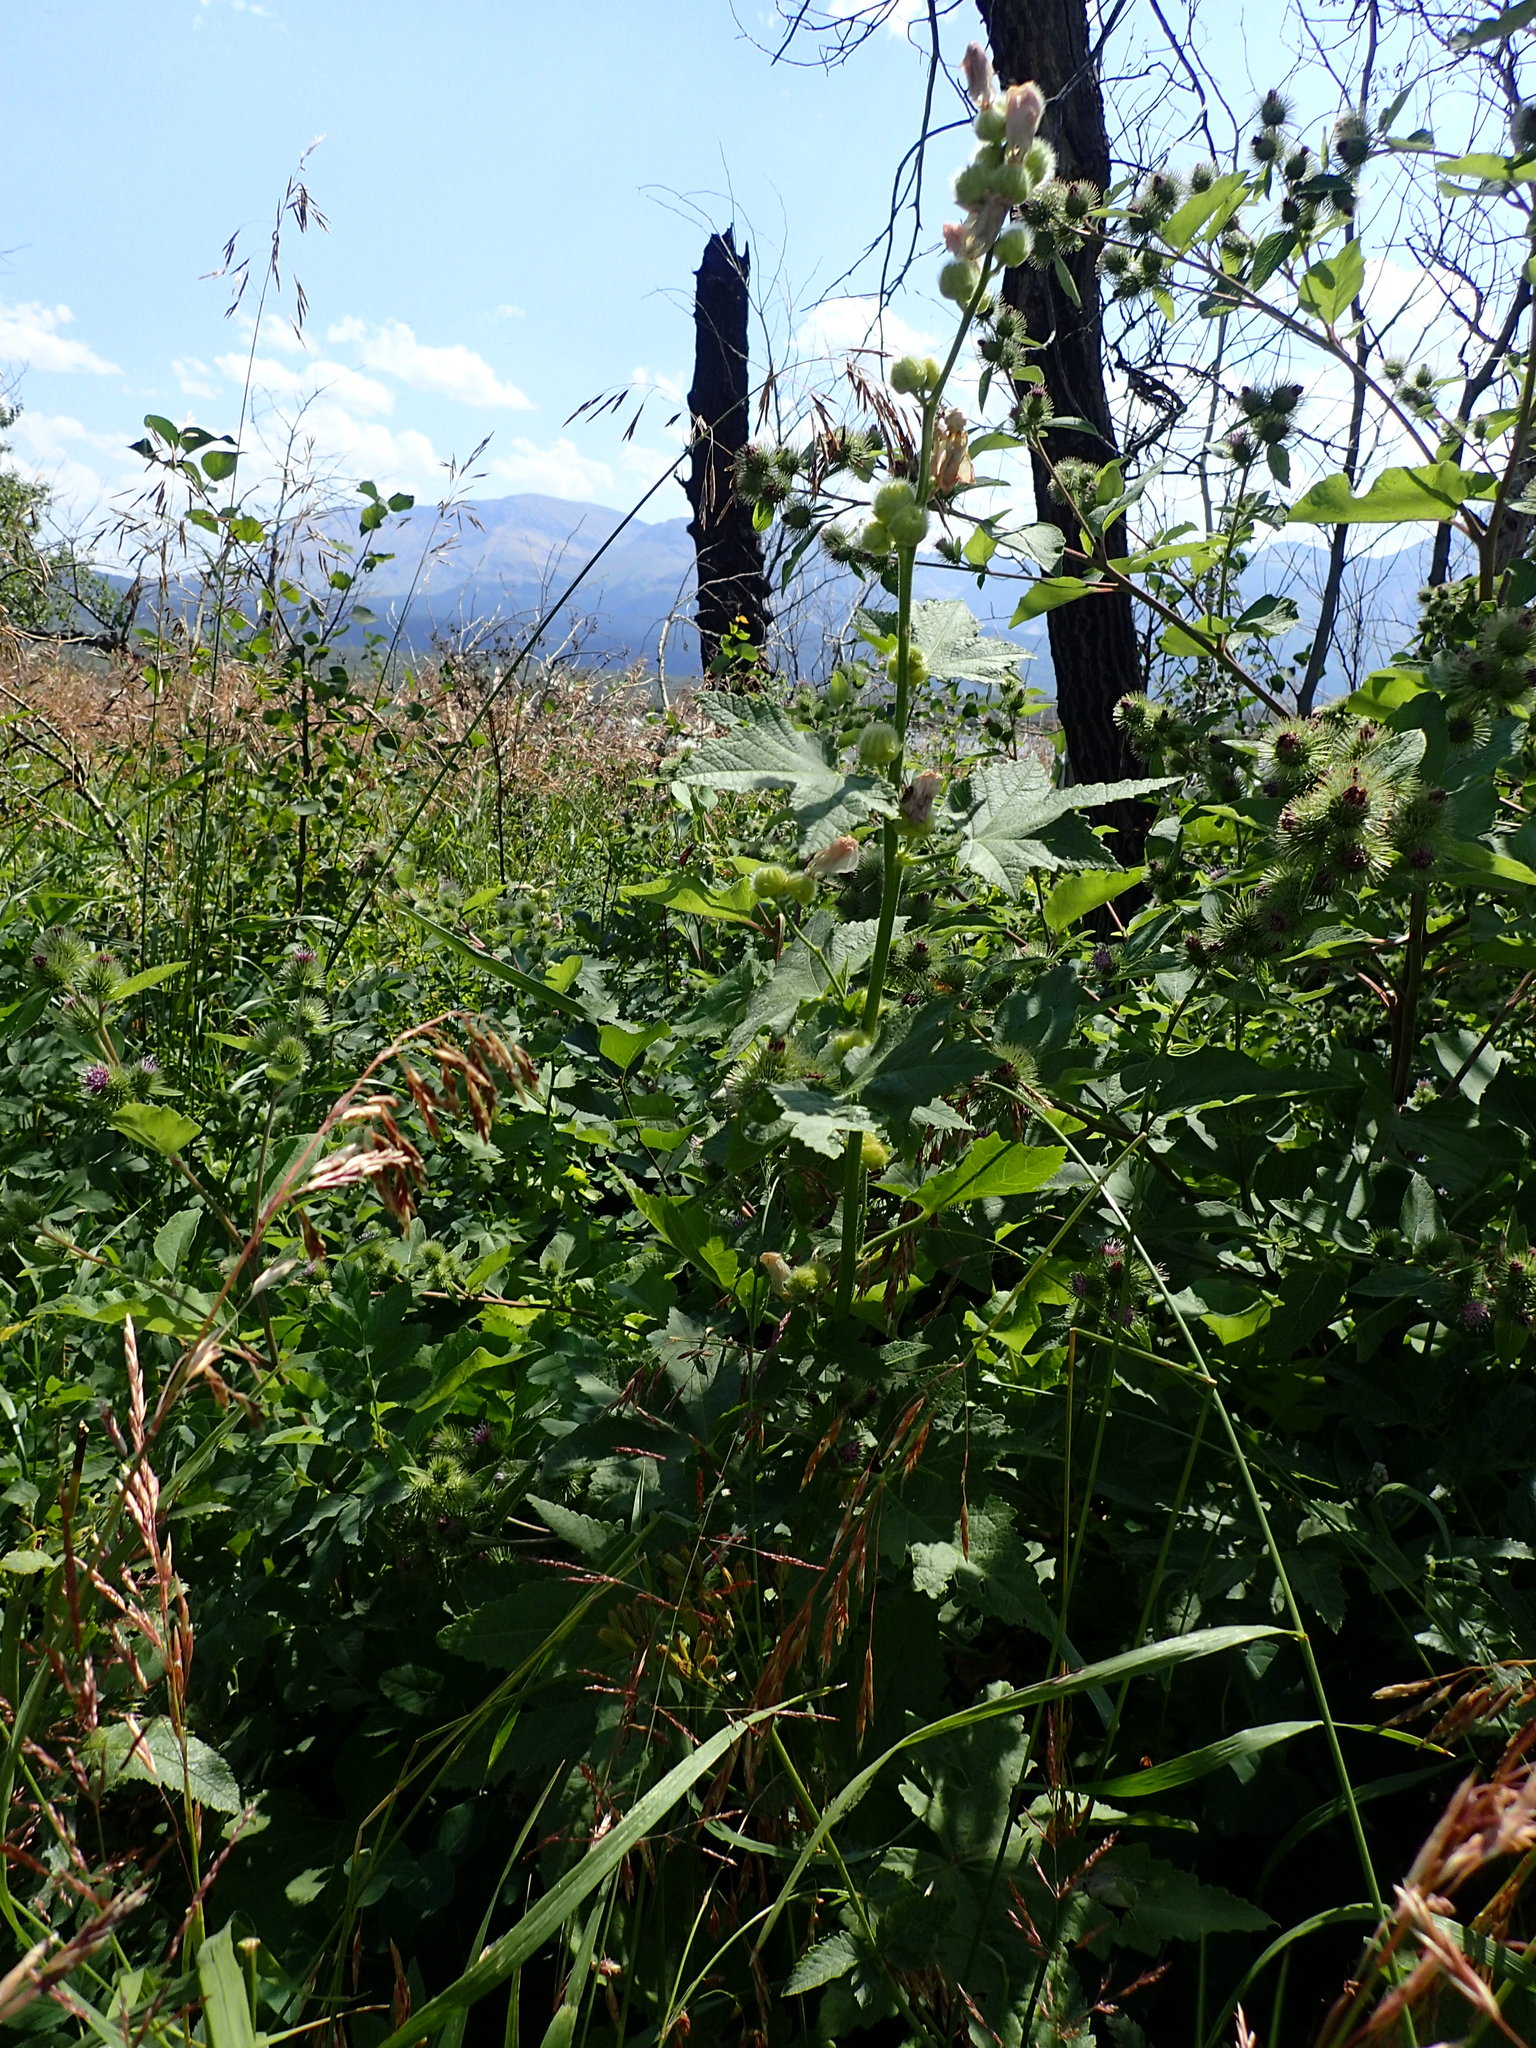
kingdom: Plantae
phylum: Tracheophyta
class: Magnoliopsida
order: Malvales
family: Malvaceae
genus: Iliamna
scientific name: Iliamna rivularis
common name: Wild hollyhock
